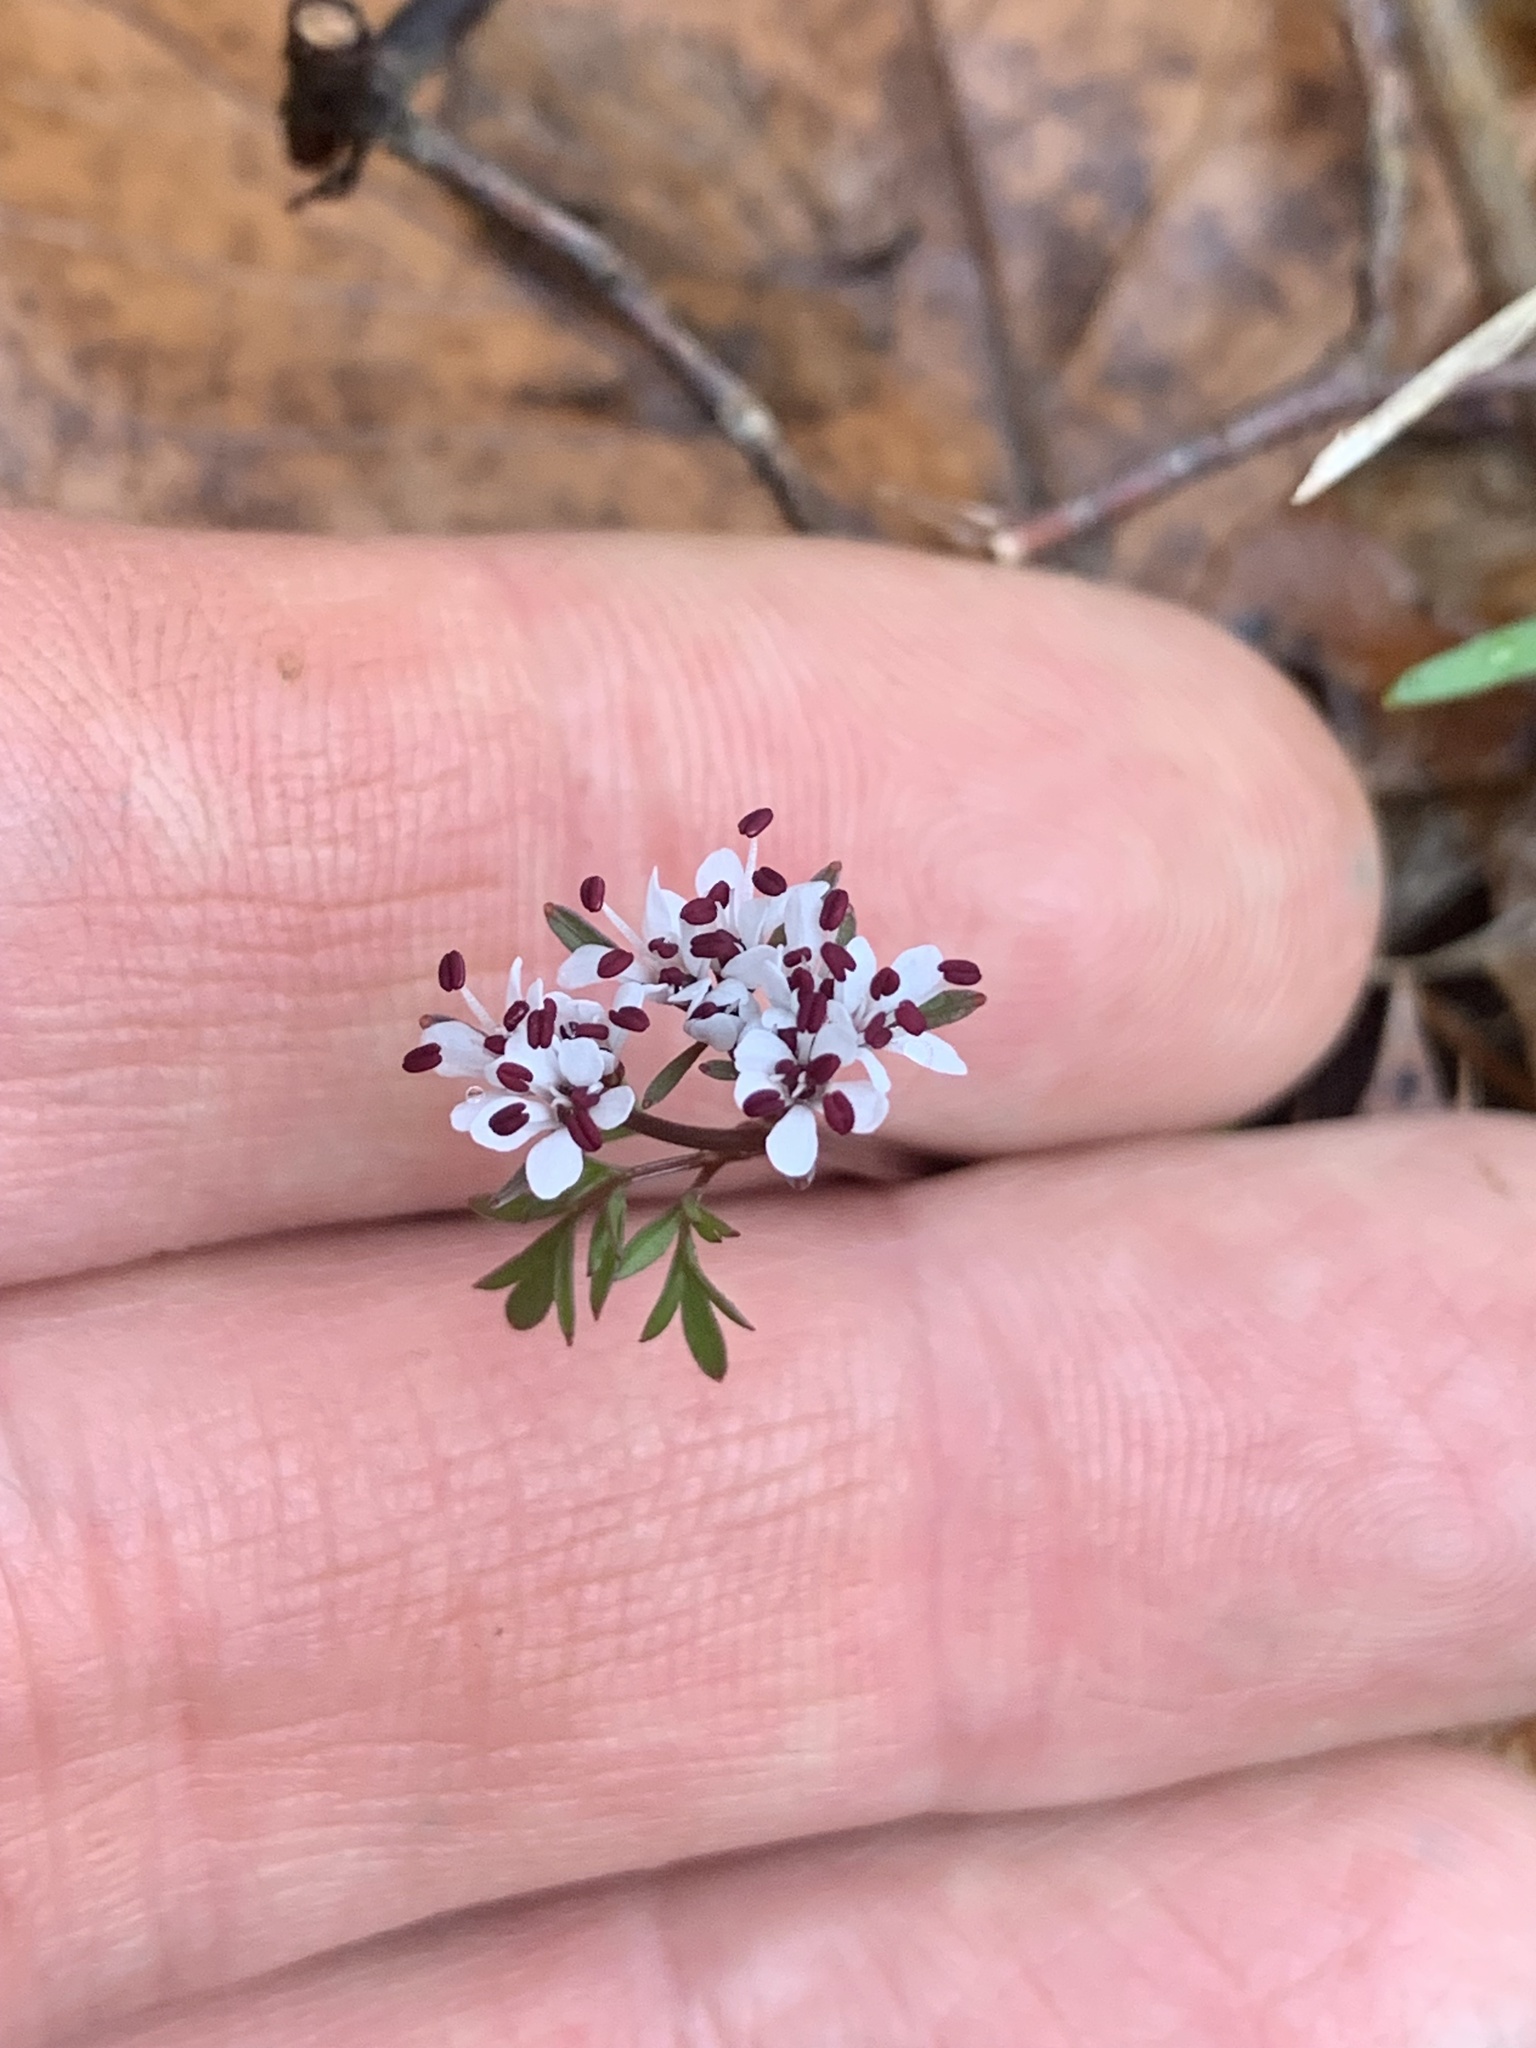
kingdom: Plantae
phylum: Tracheophyta
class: Magnoliopsida
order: Apiales
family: Apiaceae
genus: Erigenia
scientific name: Erigenia bulbosa
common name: Pepper-and-salt
